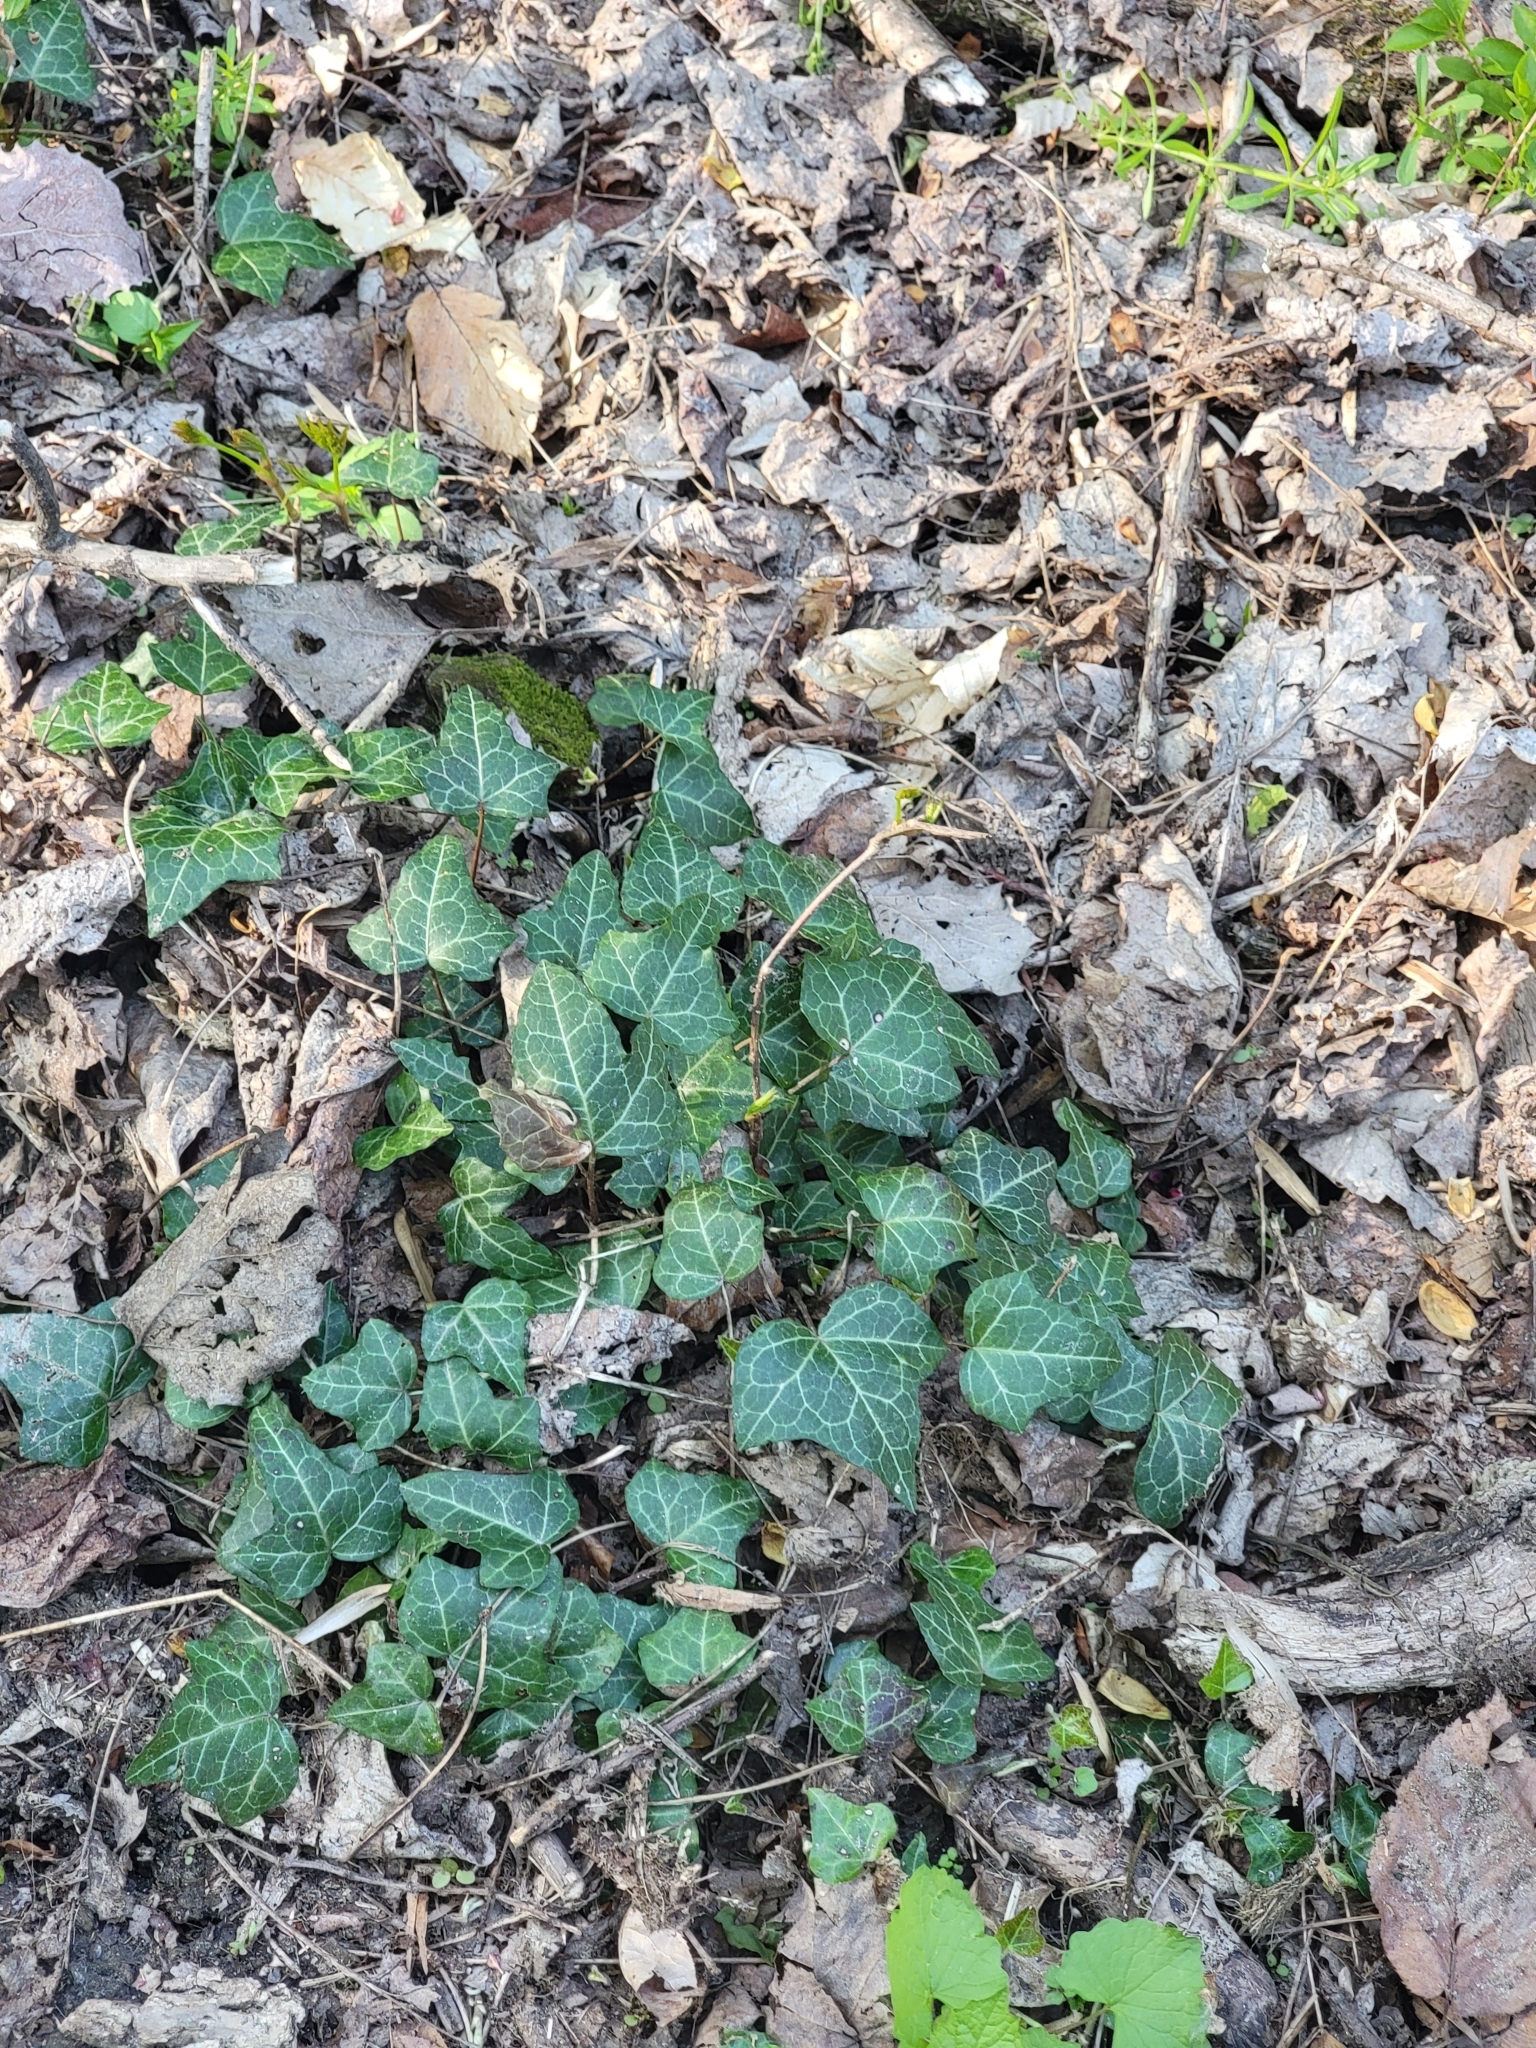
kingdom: Plantae
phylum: Tracheophyta
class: Magnoliopsida
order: Apiales
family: Araliaceae
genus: Hedera
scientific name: Hedera helix
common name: Ivy
